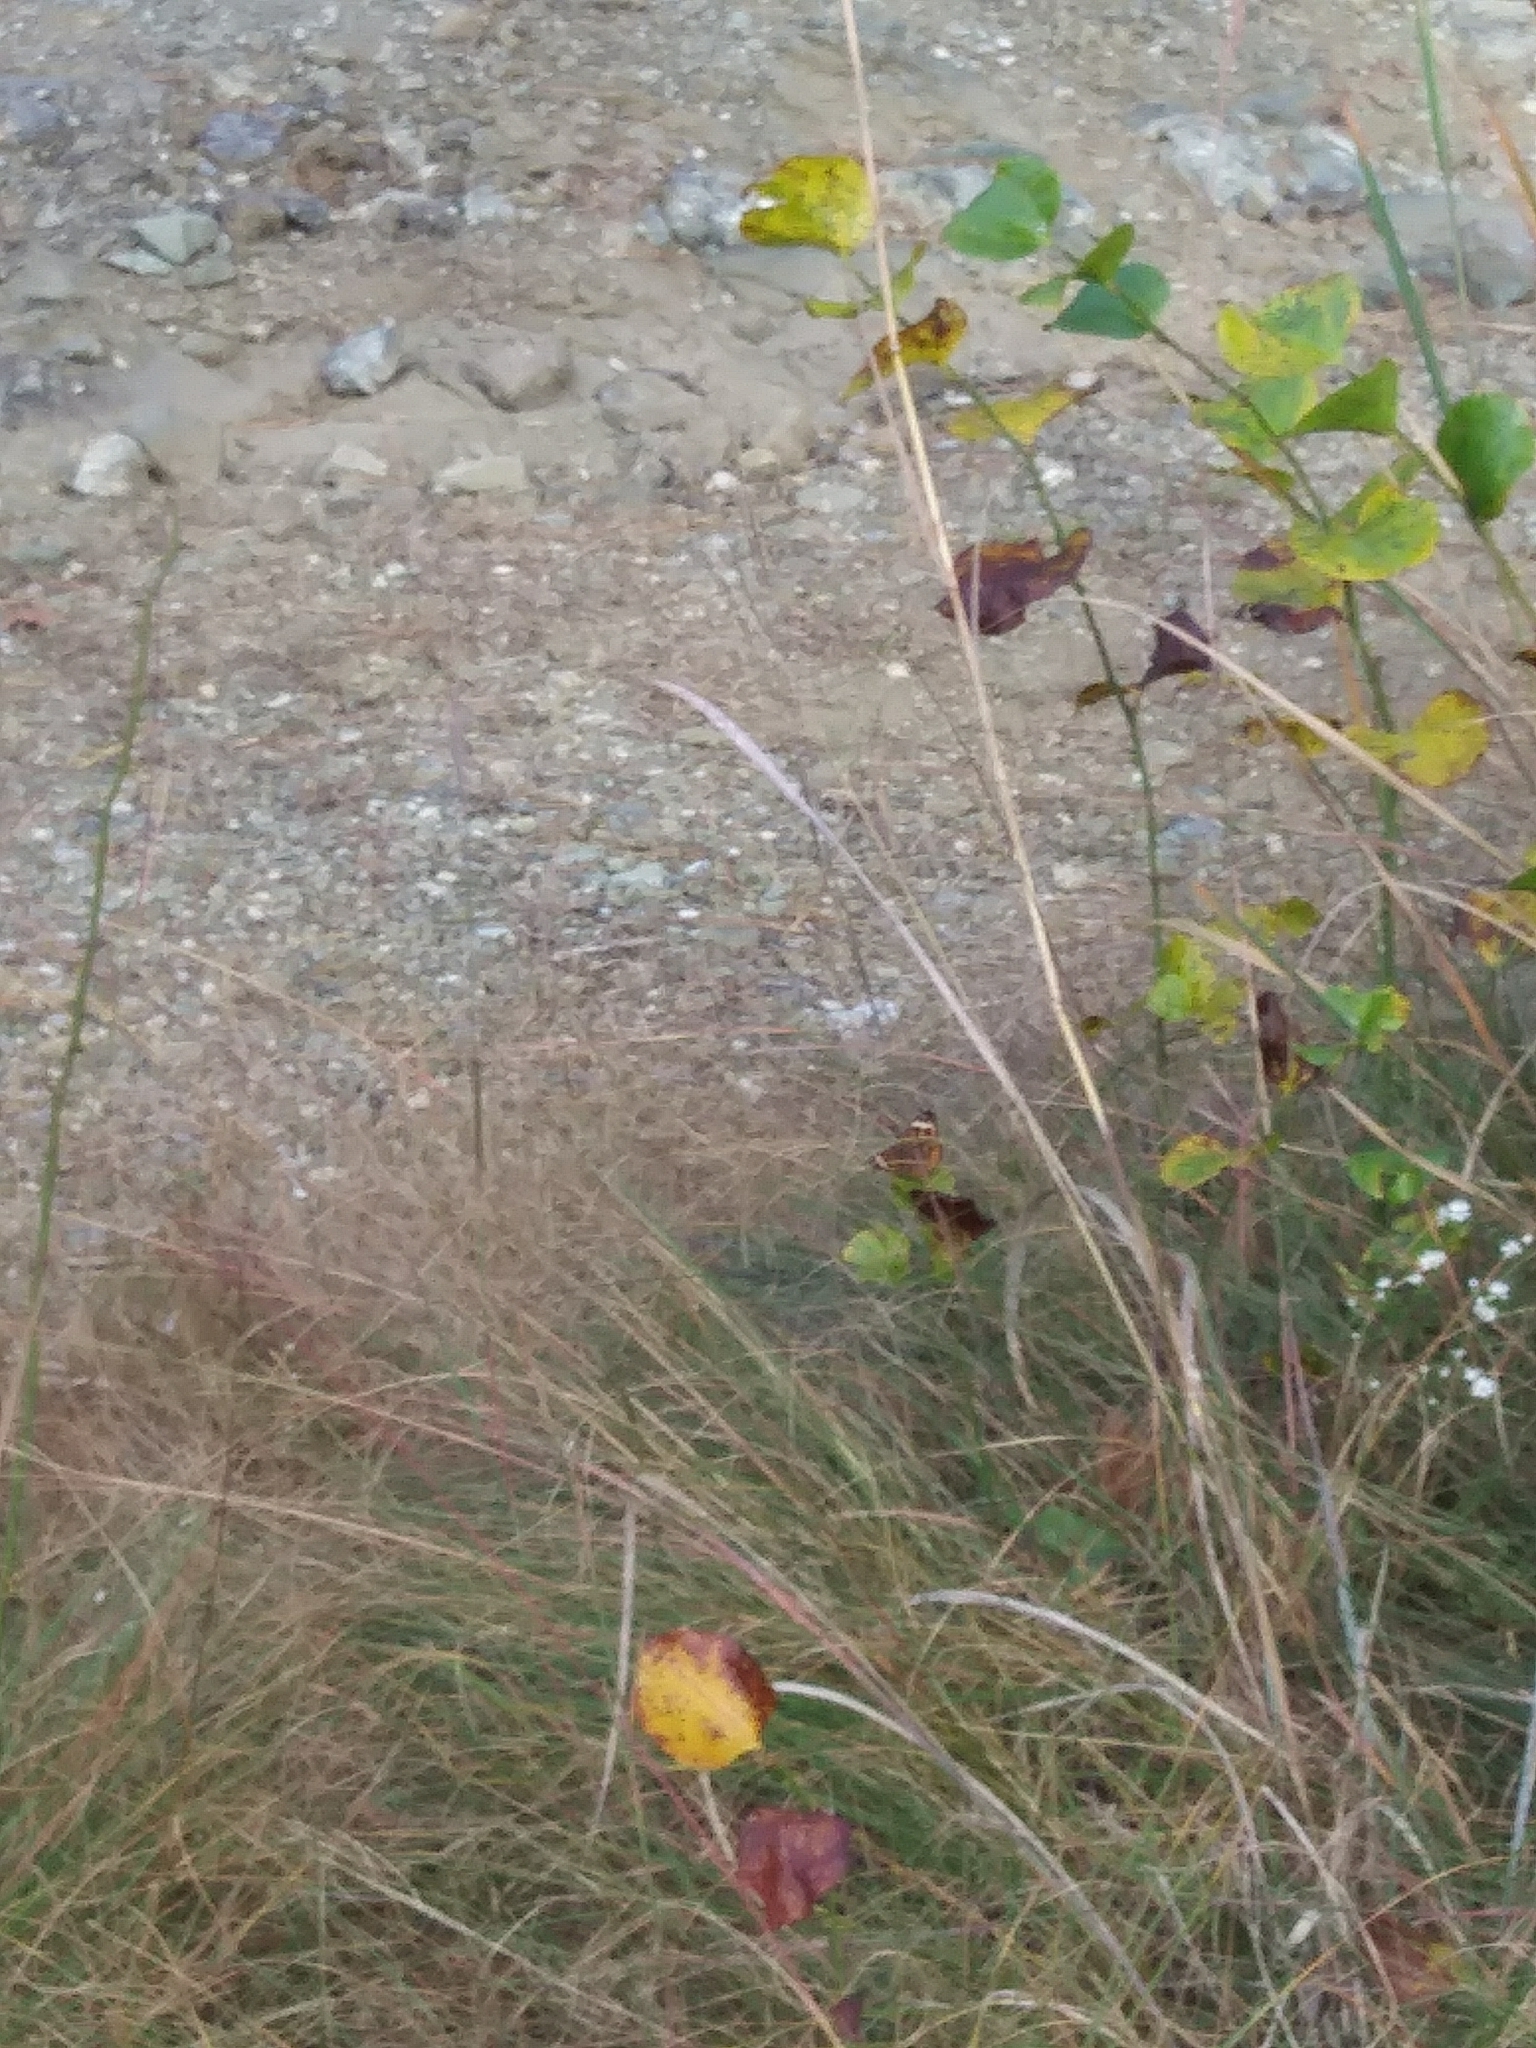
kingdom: Animalia
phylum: Arthropoda
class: Insecta
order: Lepidoptera
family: Nymphalidae
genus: Junonia
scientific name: Junonia coenia
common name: Common buckeye
